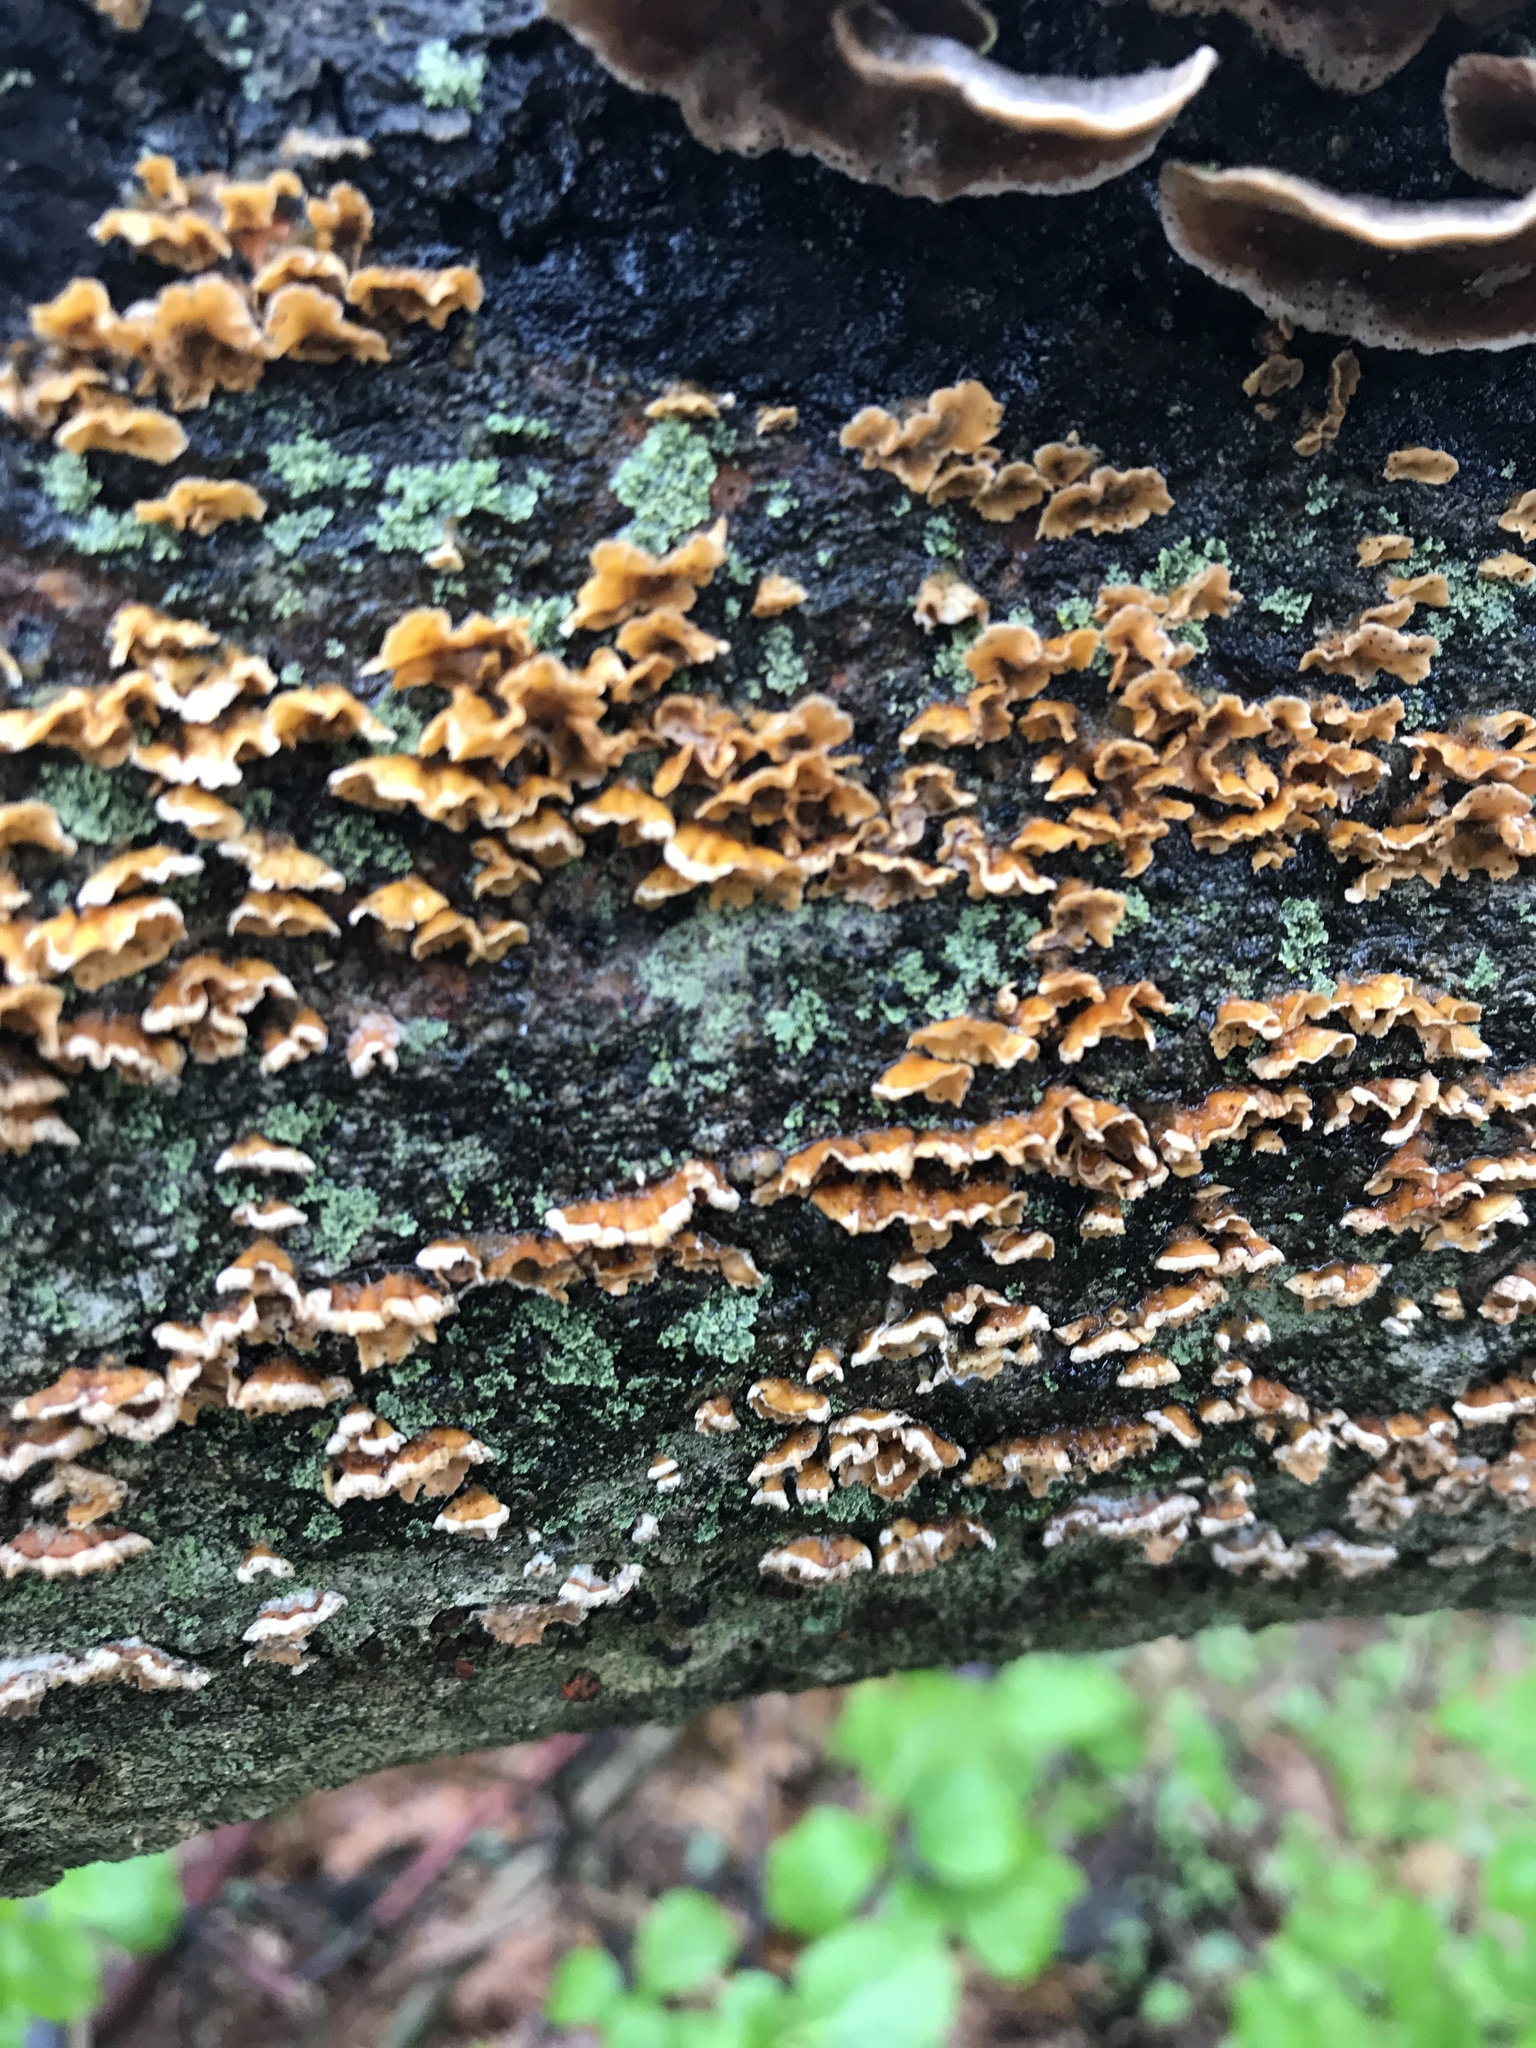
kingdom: Fungi
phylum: Basidiomycota
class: Agaricomycetes
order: Russulales
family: Stereaceae
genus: Stereum
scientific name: Stereum complicatum
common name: Crowded parchment
